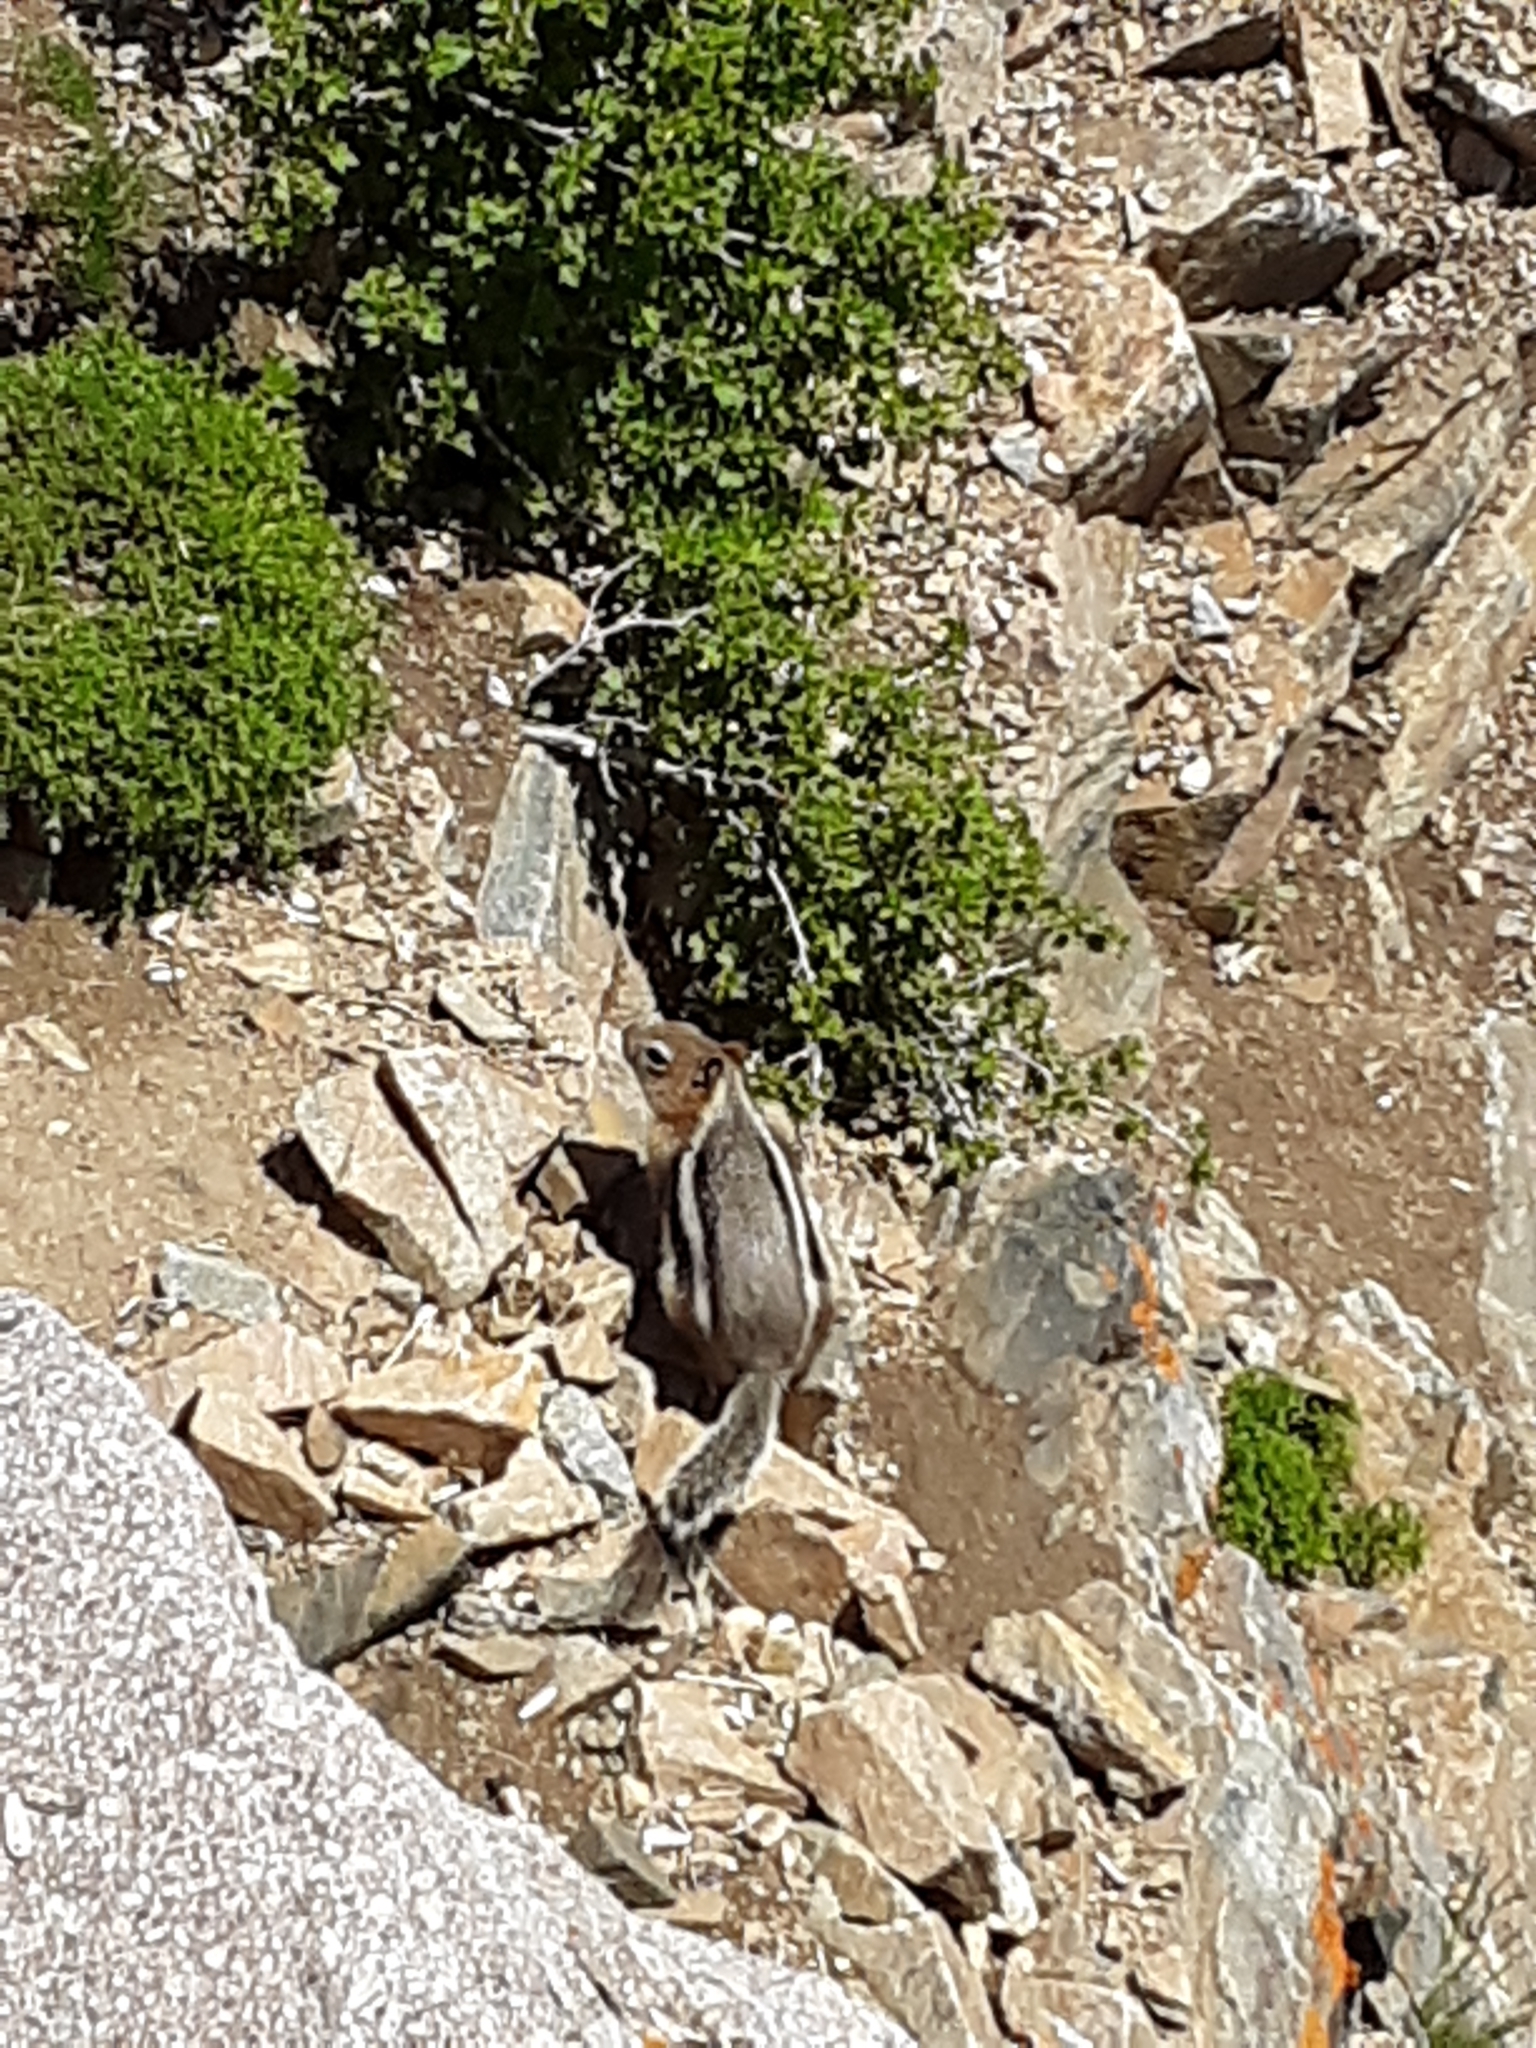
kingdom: Animalia
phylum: Chordata
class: Mammalia
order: Rodentia
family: Sciuridae
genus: Callospermophilus
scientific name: Callospermophilus lateralis
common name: Golden-mantled ground squirrel
